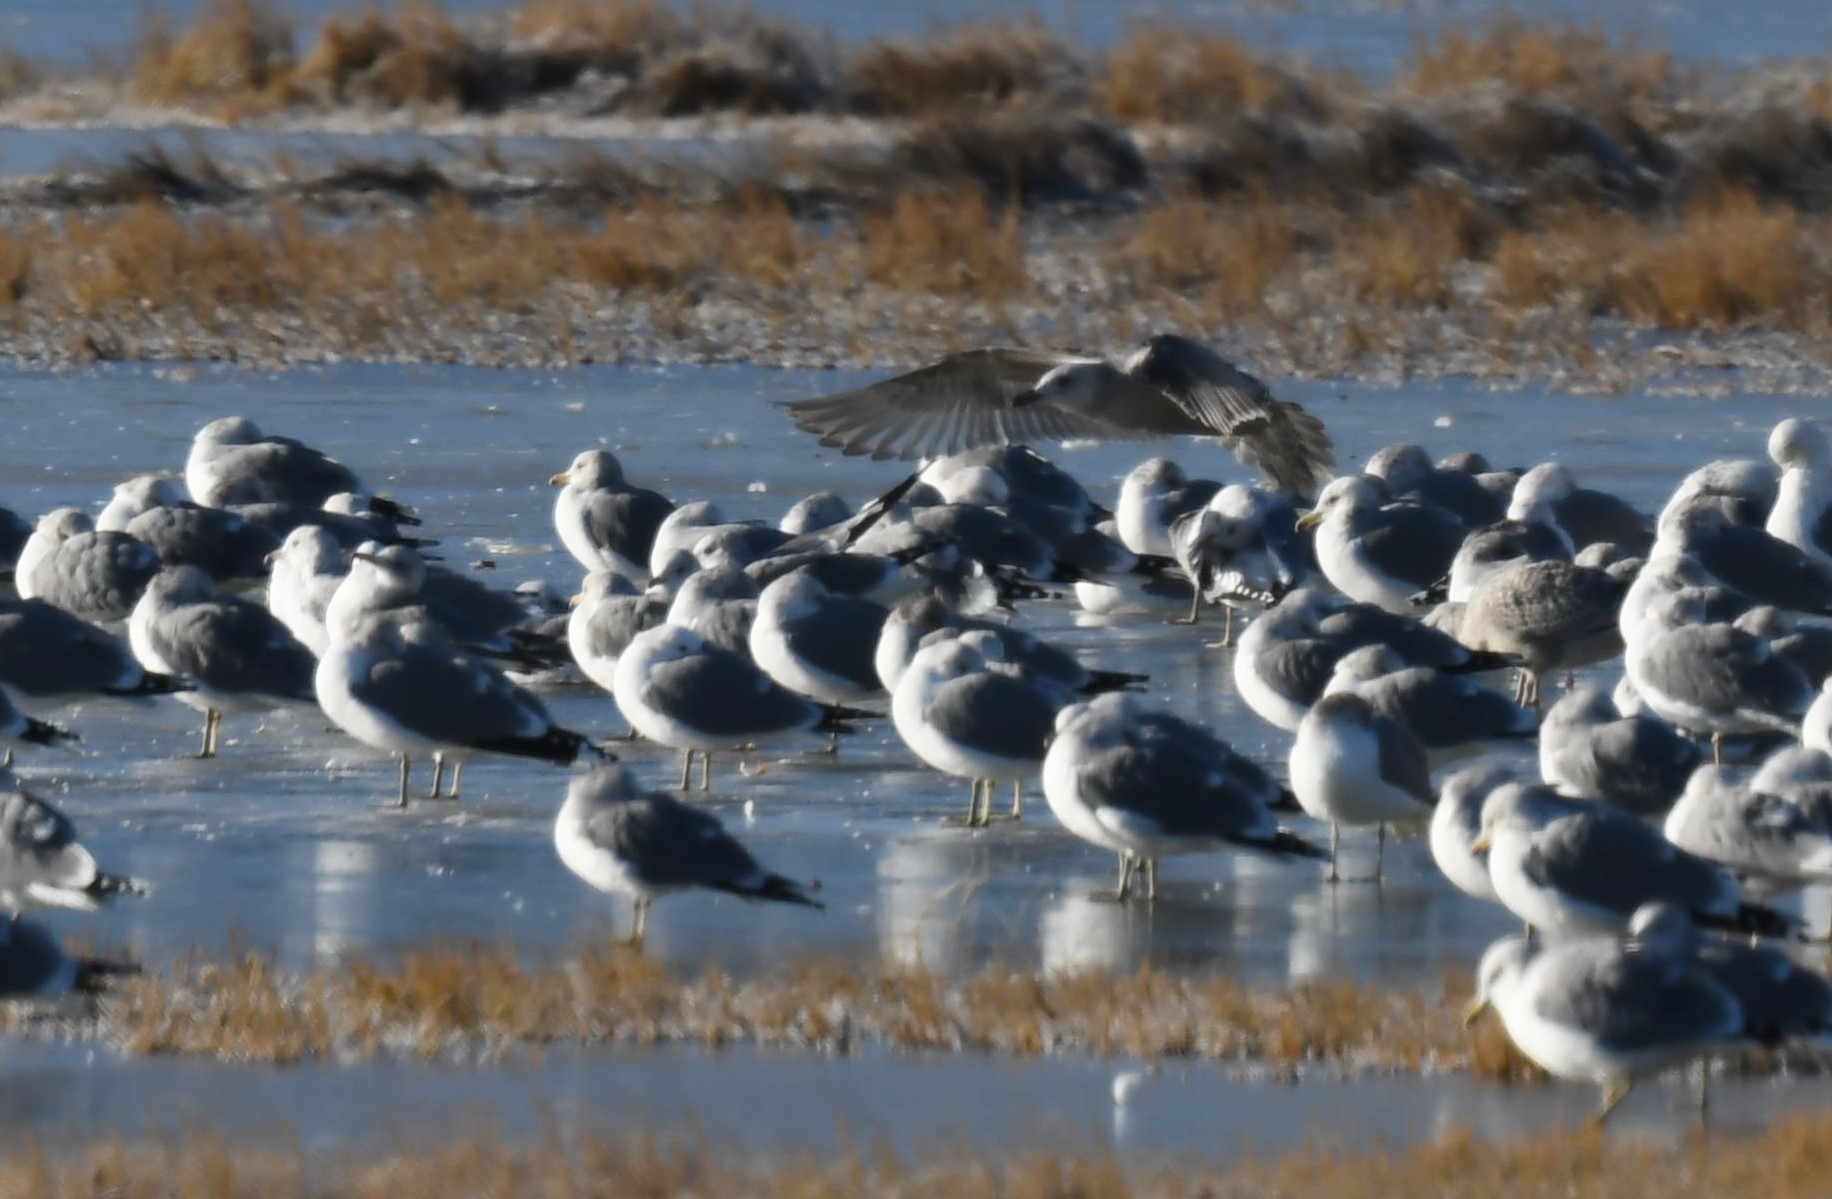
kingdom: Animalia
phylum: Chordata
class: Aves
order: Charadriiformes
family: Laridae
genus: Larus
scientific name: Larus glaucoides
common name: Iceland gull
